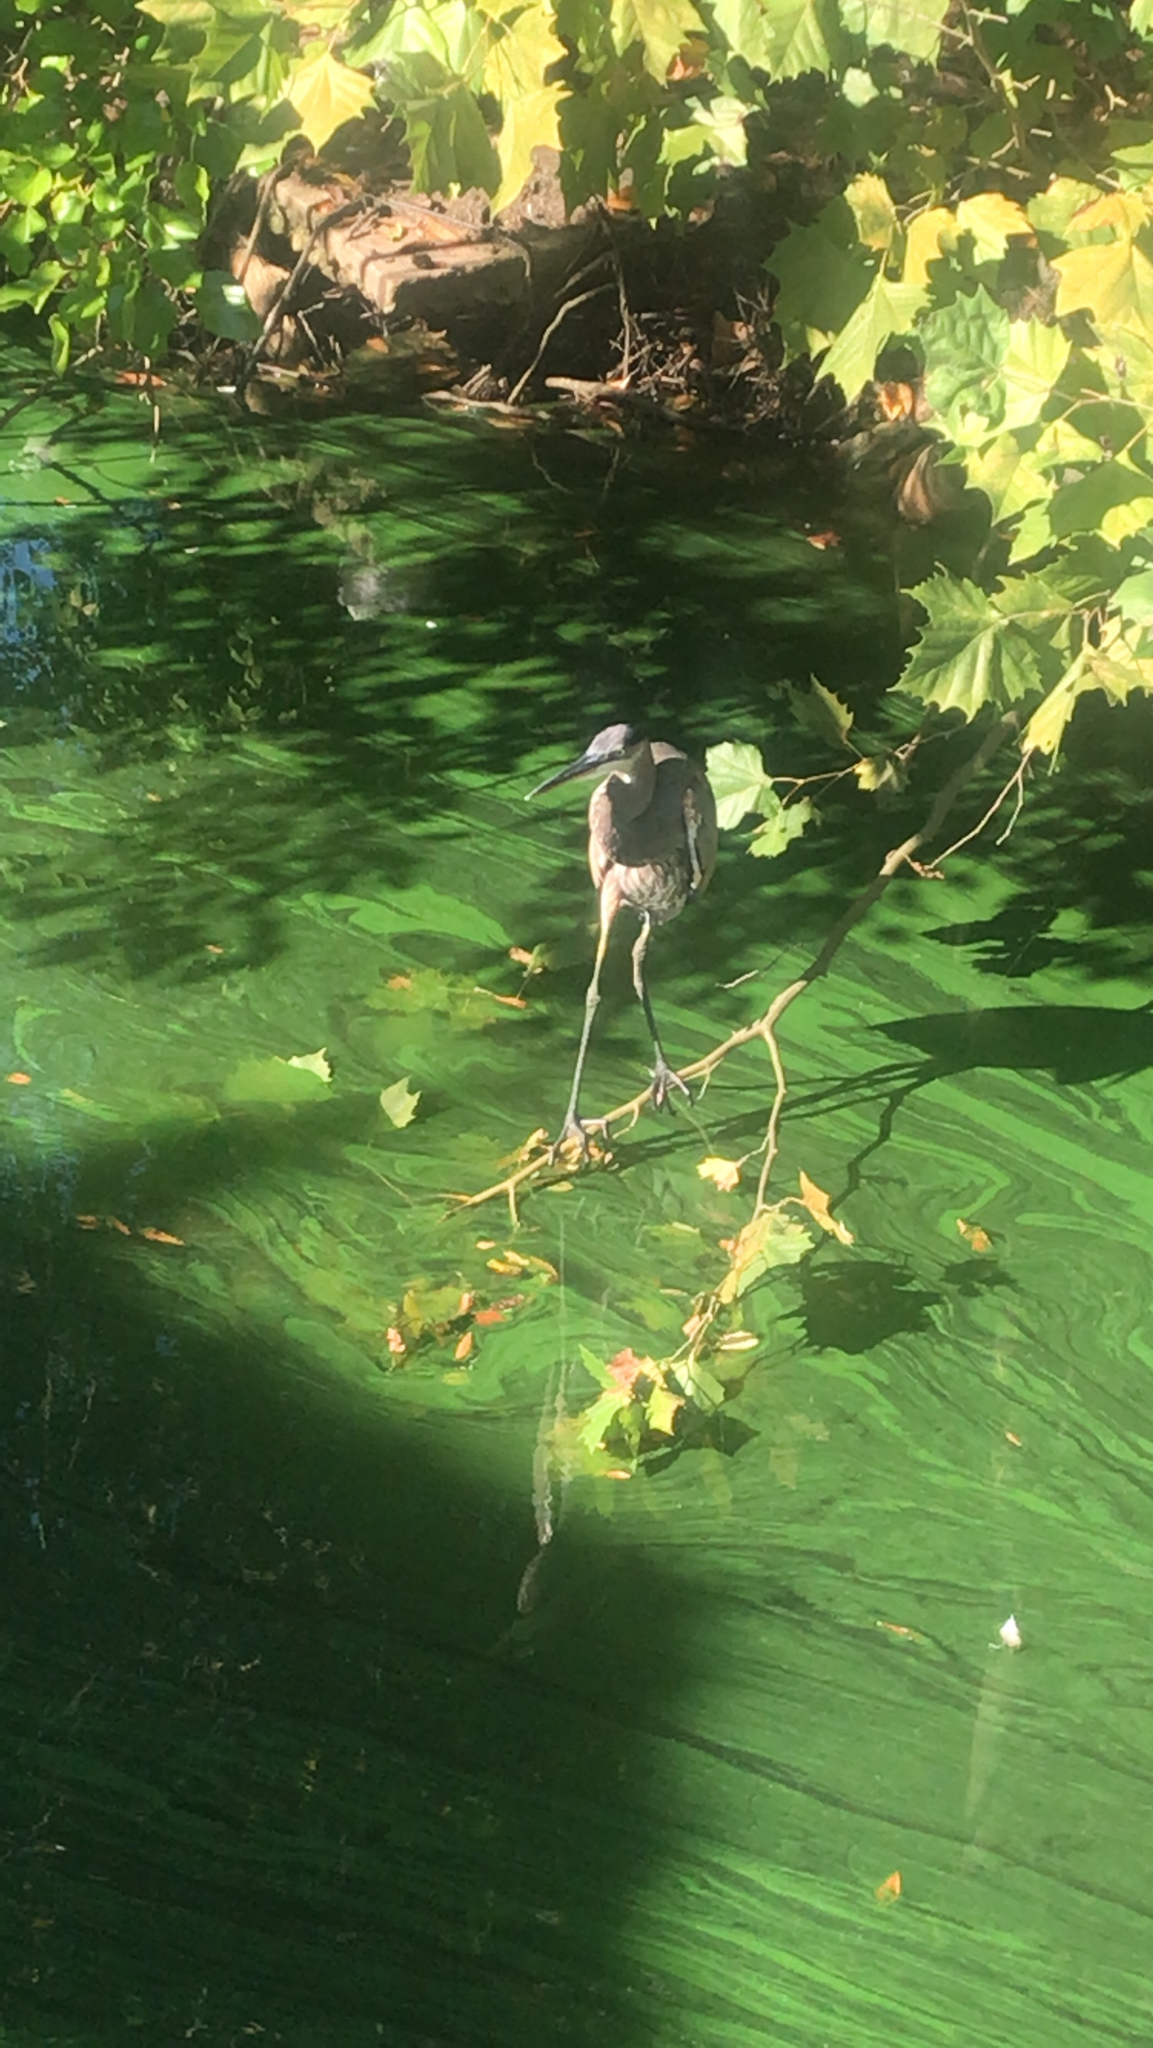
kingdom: Animalia
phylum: Chordata
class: Aves
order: Pelecaniformes
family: Ardeidae
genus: Ardea
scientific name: Ardea herodias
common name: Great blue heron
